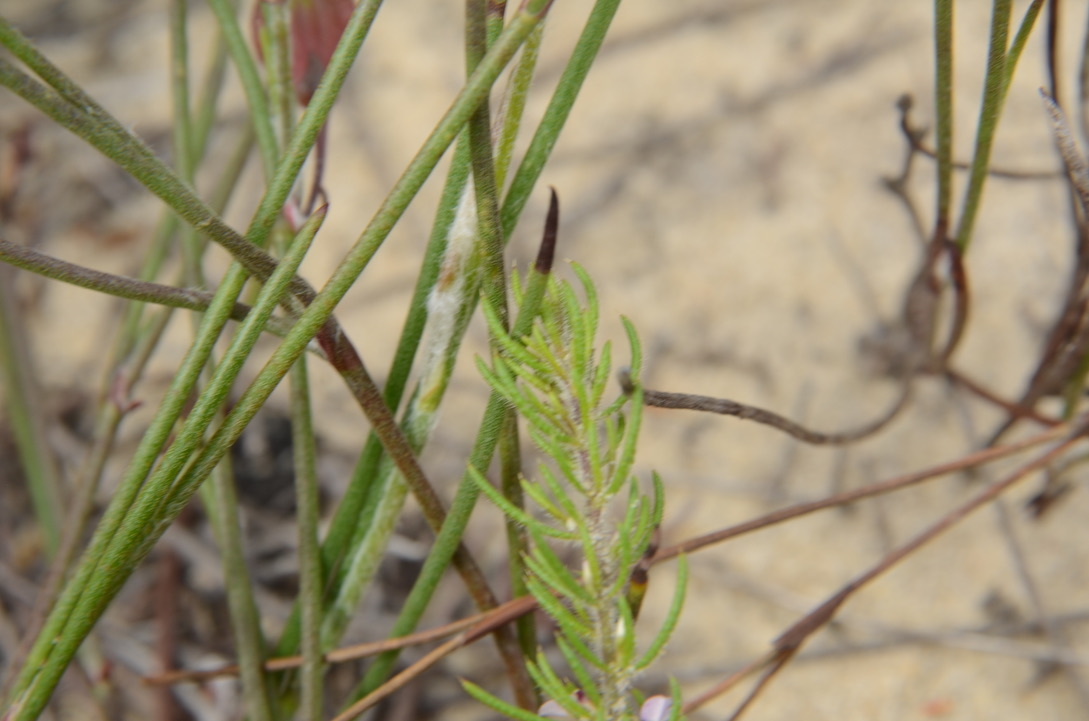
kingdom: Plantae
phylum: Tracheophyta
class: Magnoliopsida
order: Fabales
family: Polygalaceae
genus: Muraltia
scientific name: Muraltia cyclolopha
